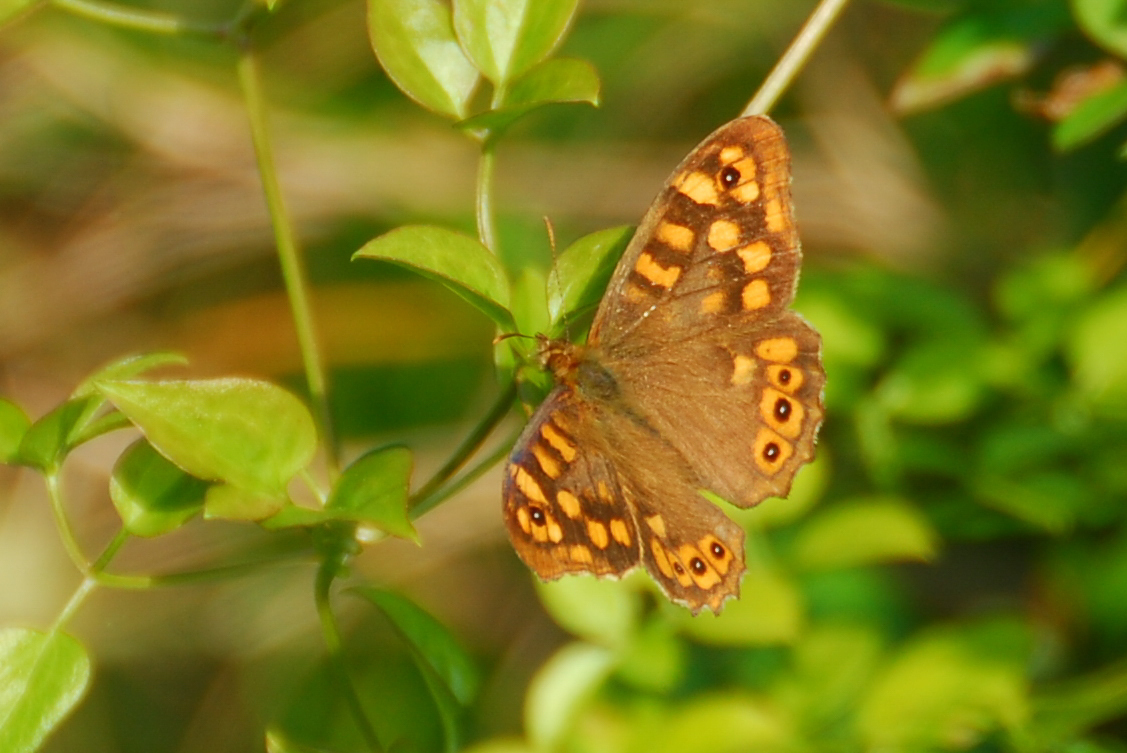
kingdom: Animalia
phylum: Arthropoda
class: Insecta
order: Lepidoptera
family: Nymphalidae
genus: Pararge
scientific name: Pararge aegeria
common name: Speckled wood
